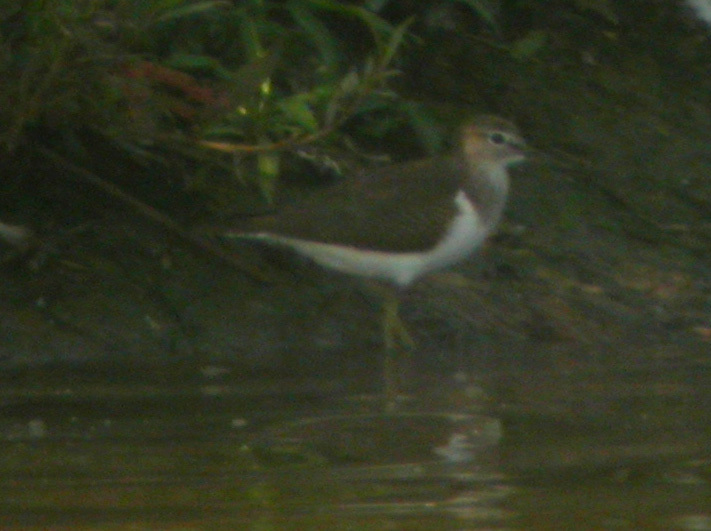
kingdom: Animalia
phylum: Chordata
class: Aves
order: Charadriiformes
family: Scolopacidae
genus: Actitis
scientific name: Actitis hypoleucos
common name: Common sandpiper
